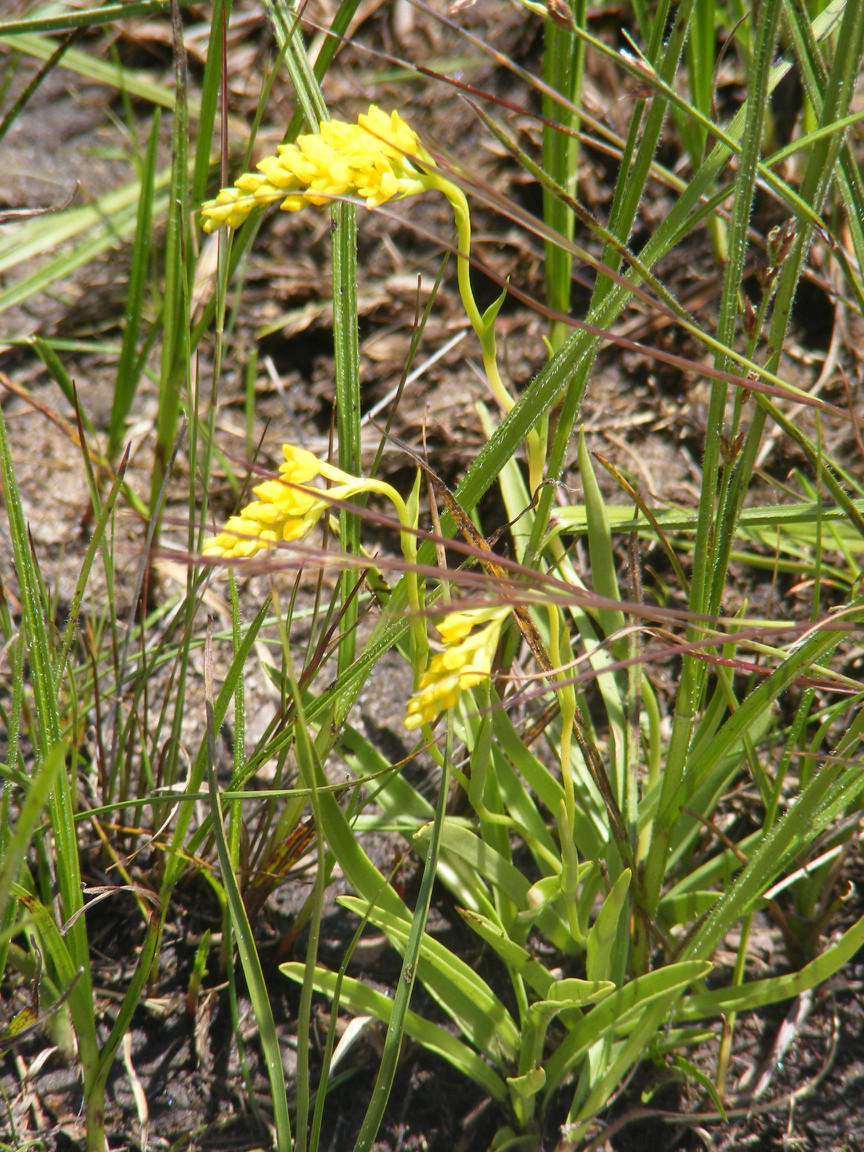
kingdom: Plantae
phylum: Tracheophyta
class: Liliopsida
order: Asparagales
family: Orchidaceae
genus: Schizochilus
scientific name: Schizochilus cecilii
